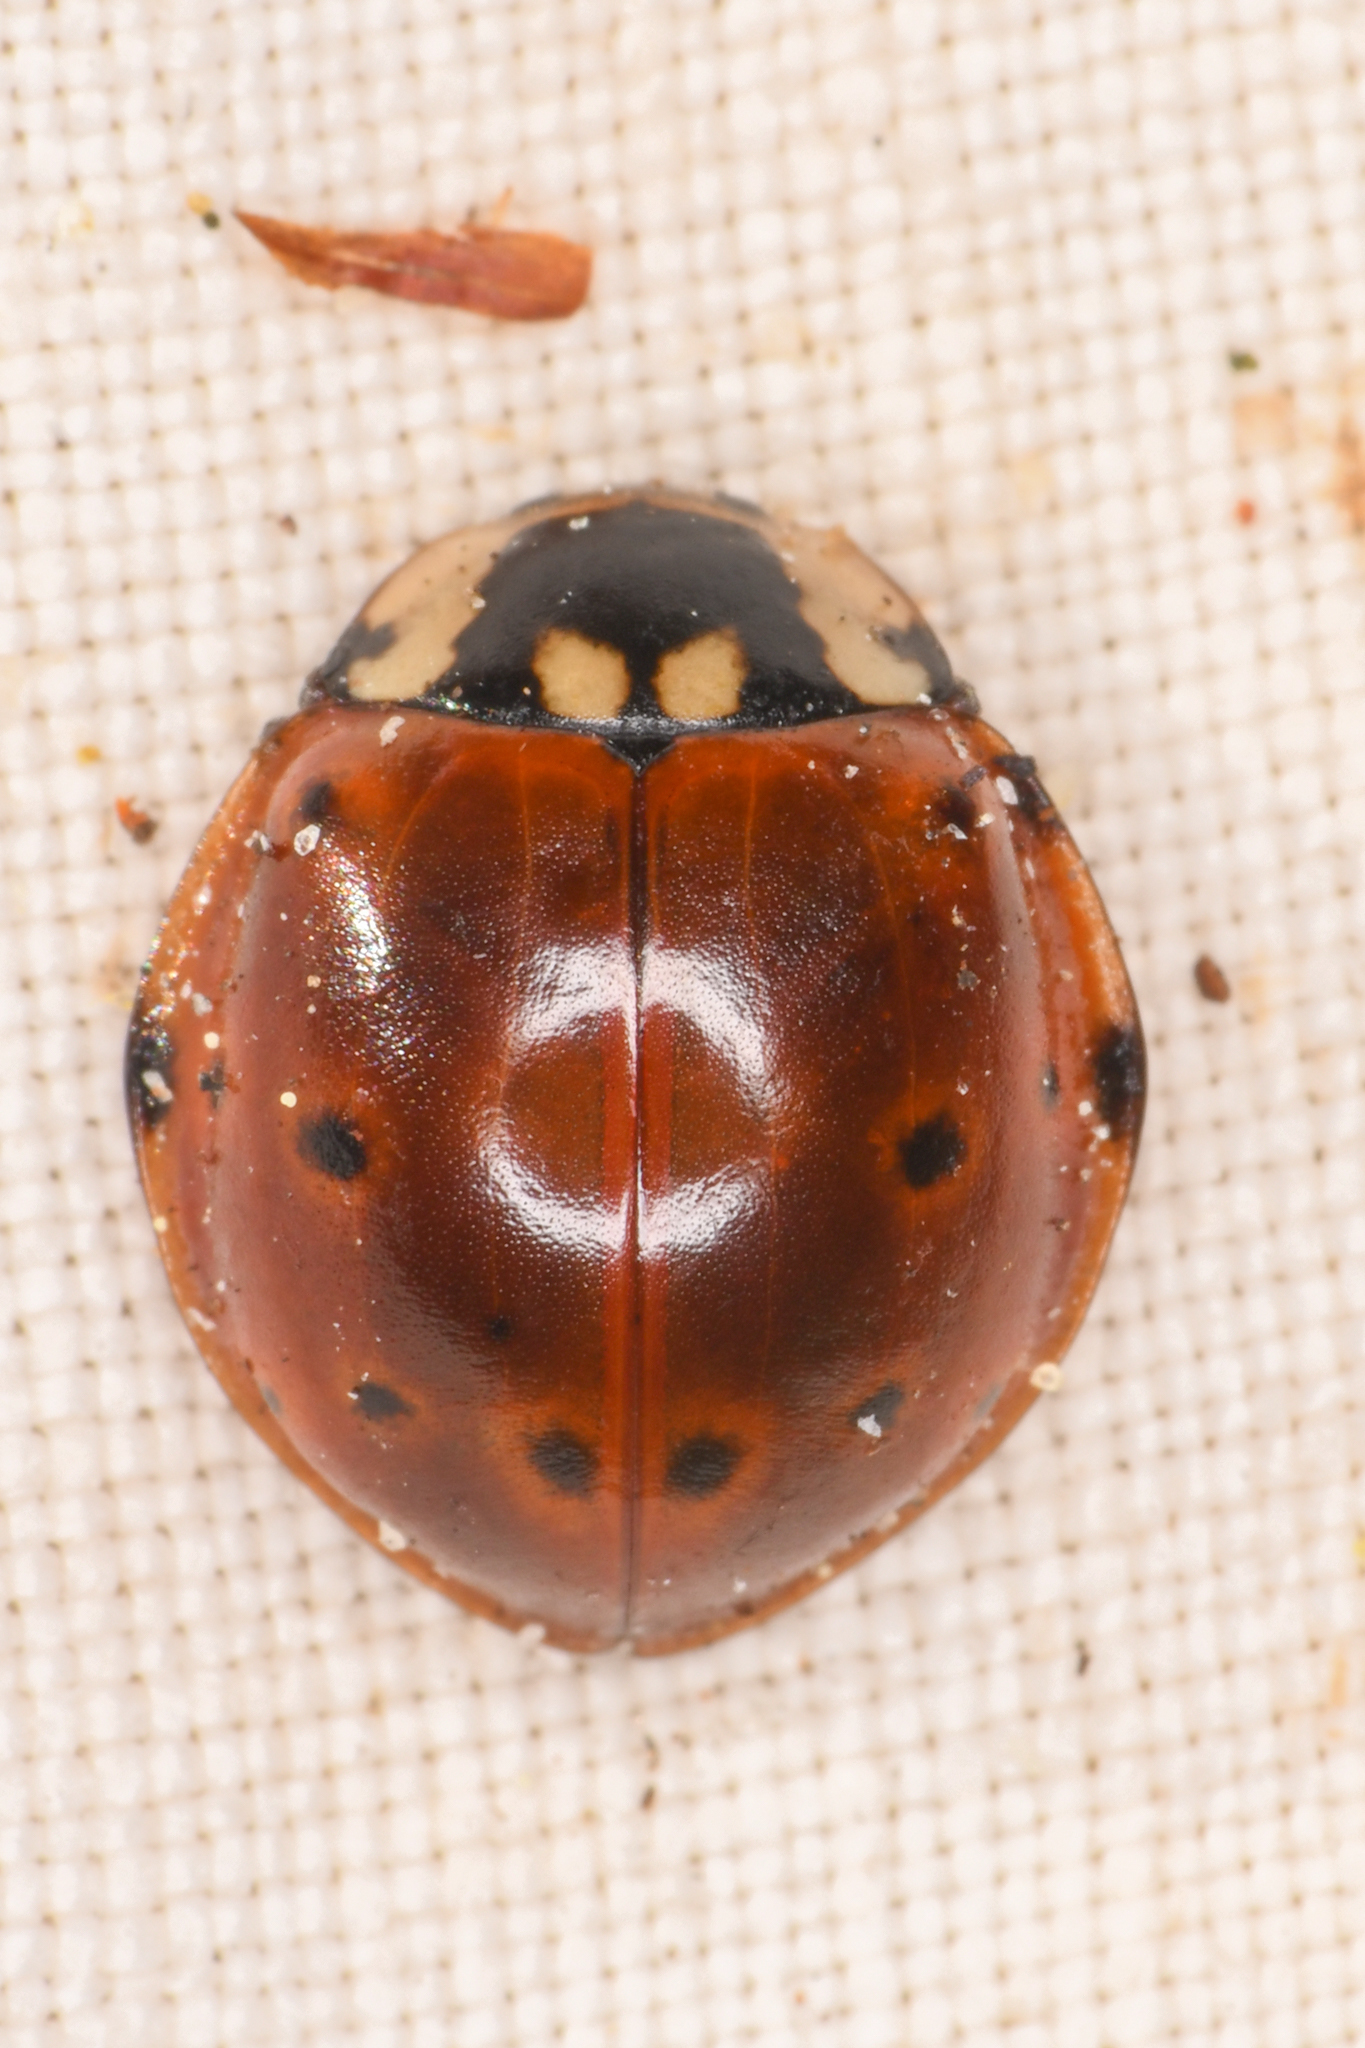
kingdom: Animalia
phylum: Arthropoda
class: Insecta
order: Coleoptera
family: Coccinellidae
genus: Anatis
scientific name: Anatis rathvoni
